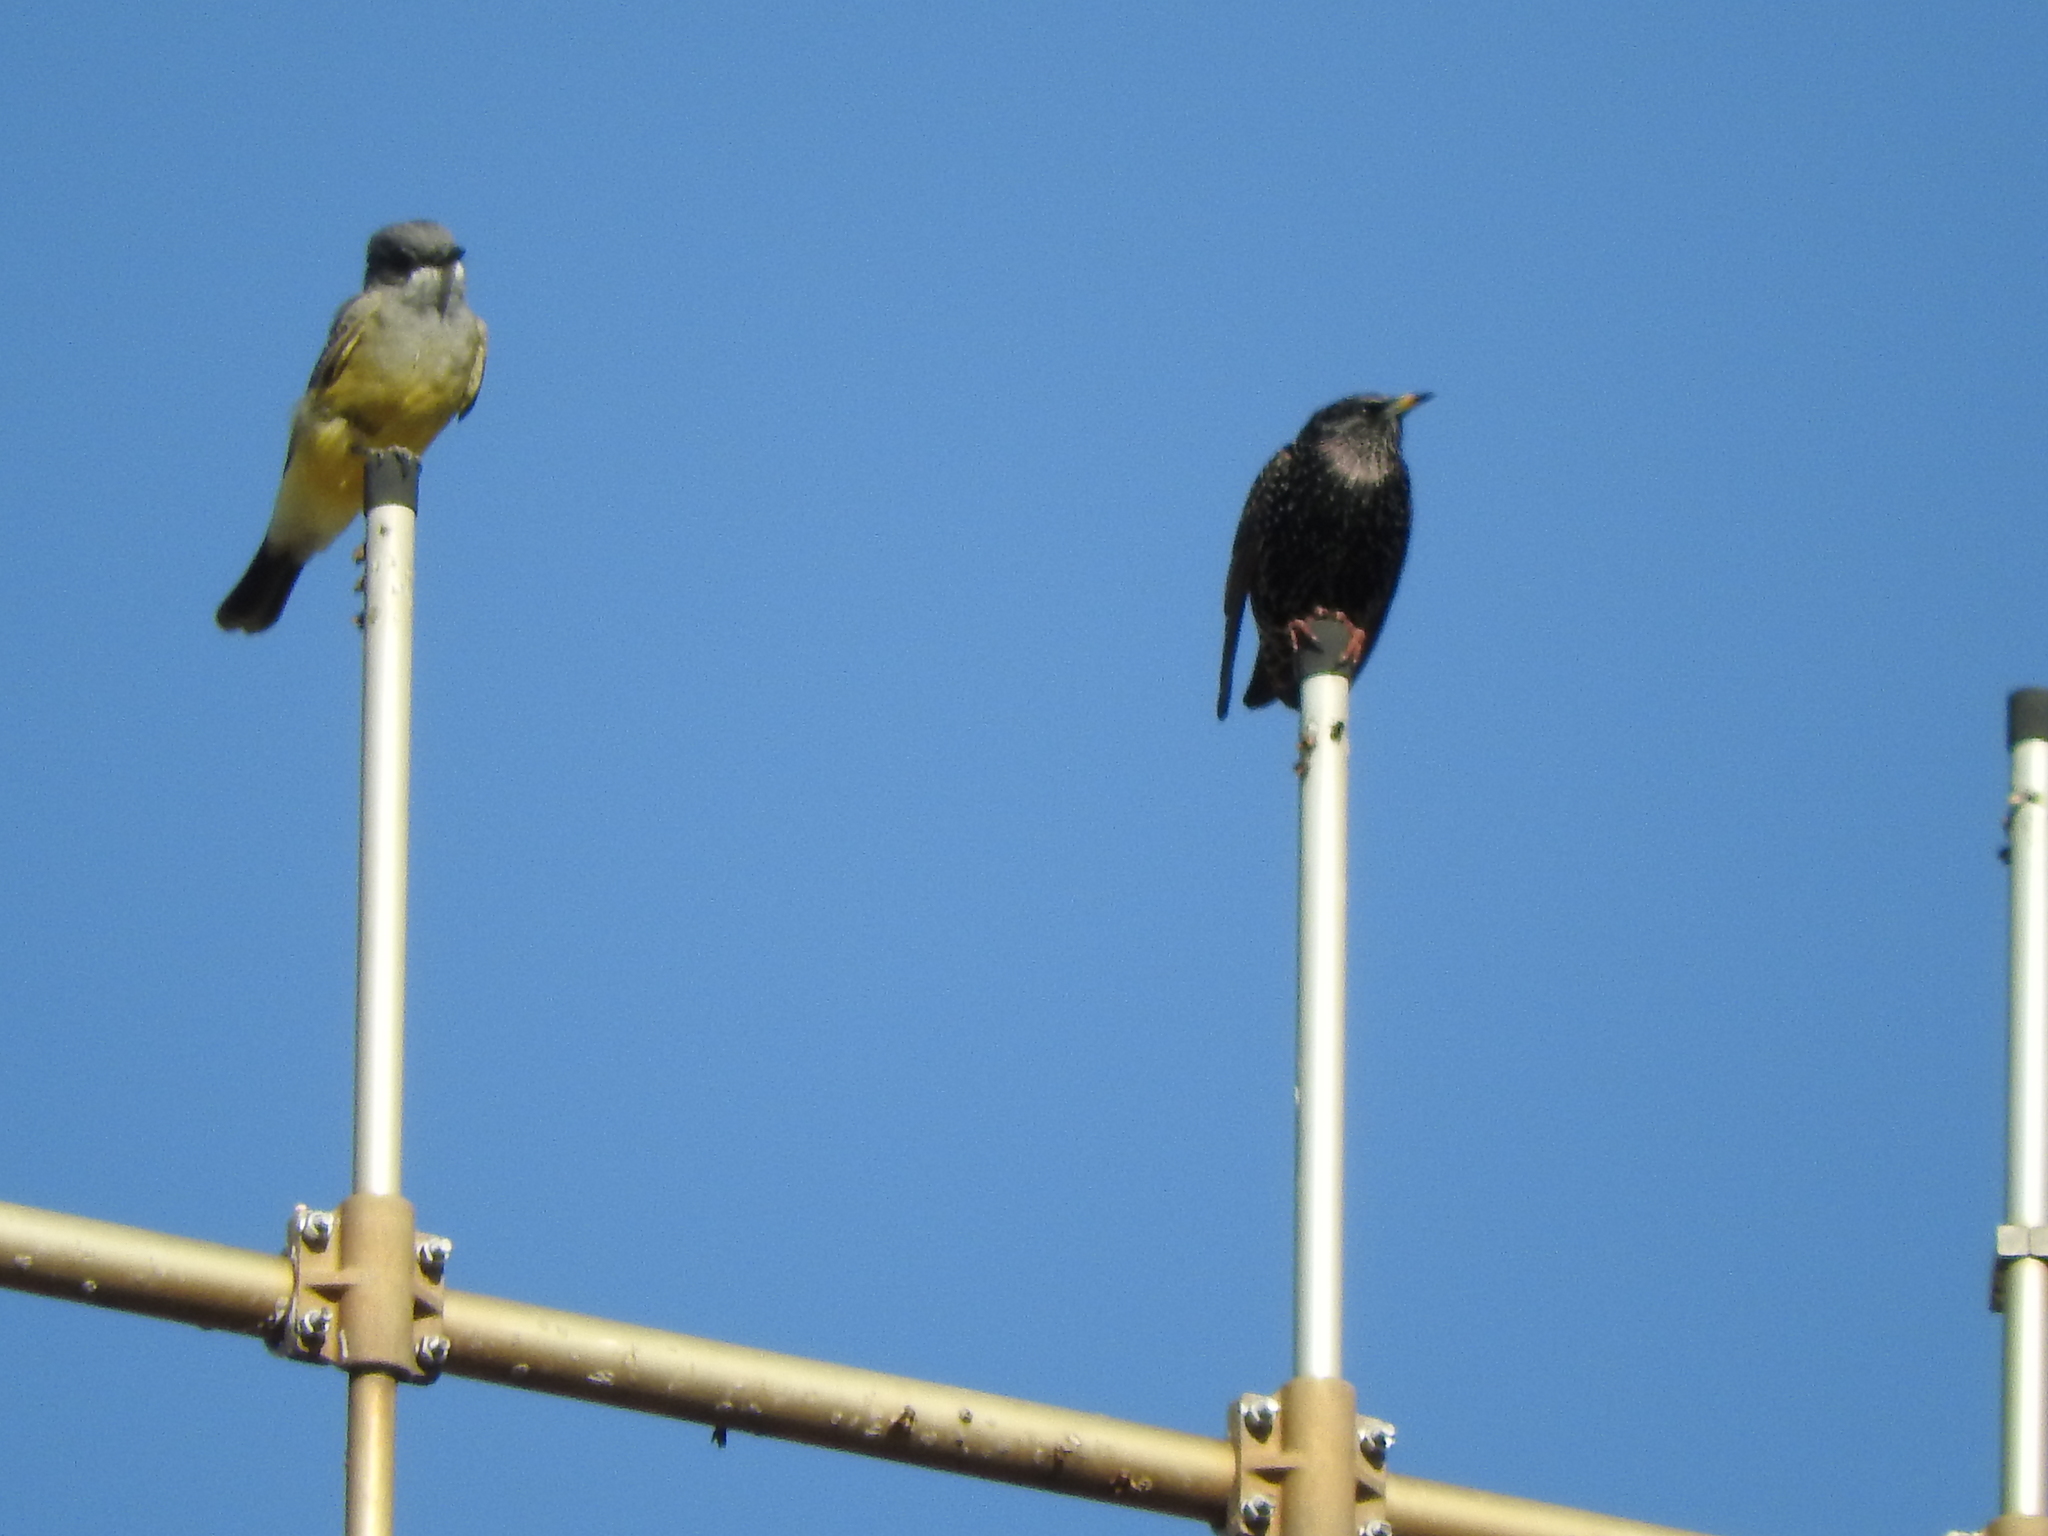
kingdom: Animalia
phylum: Chordata
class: Aves
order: Passeriformes
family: Tyrannidae
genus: Tyrannus
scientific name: Tyrannus vociferans
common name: Cassin's kingbird
